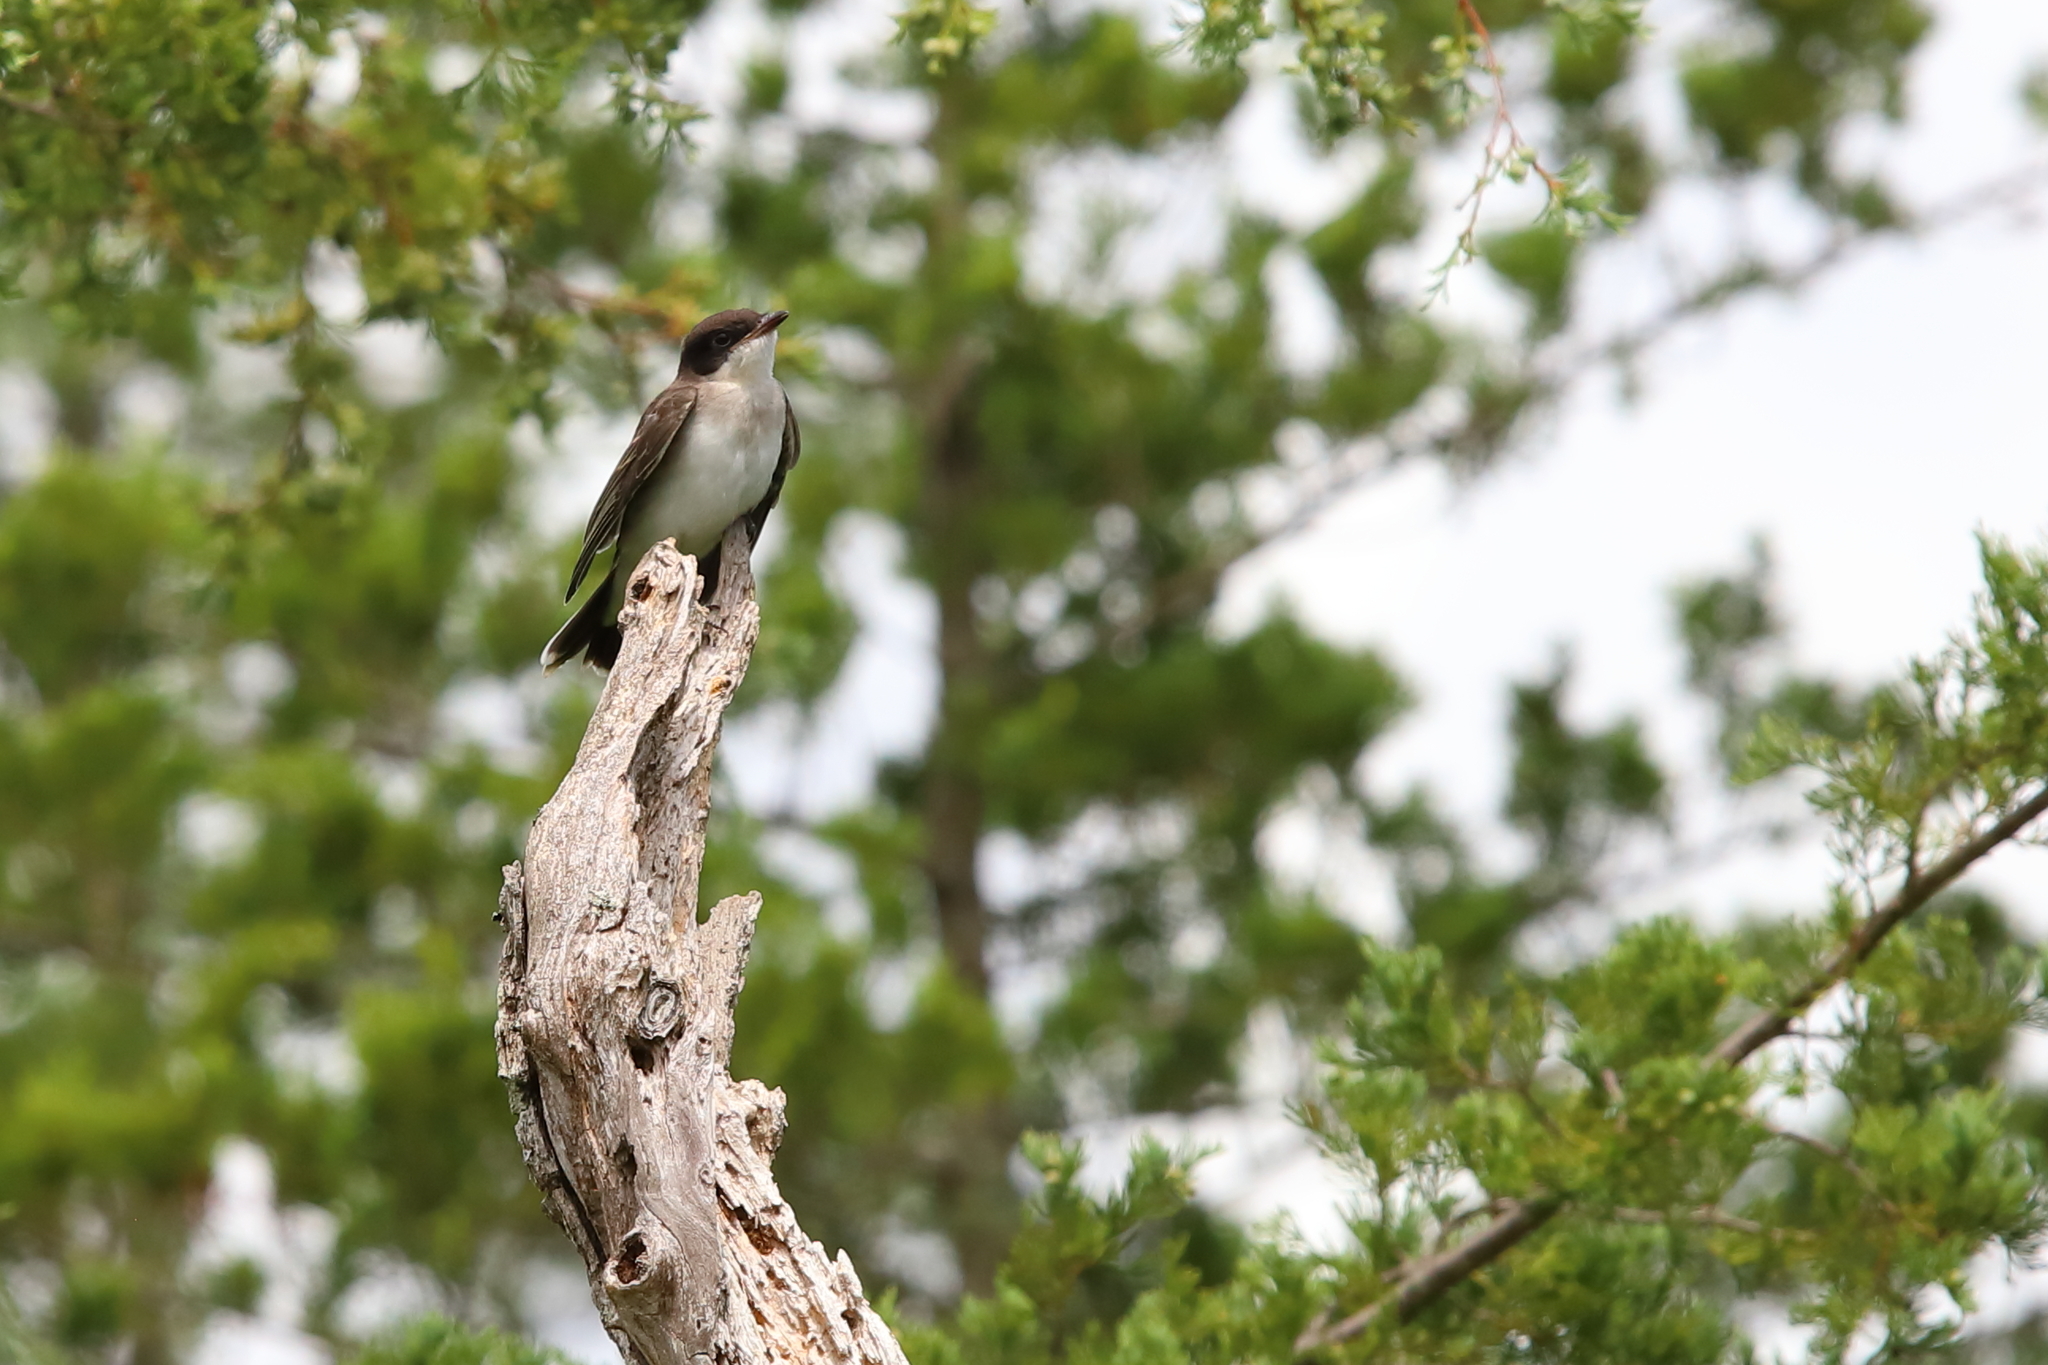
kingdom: Animalia
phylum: Chordata
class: Aves
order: Passeriformes
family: Tyrannidae
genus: Tyrannus
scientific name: Tyrannus tyrannus
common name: Eastern kingbird
